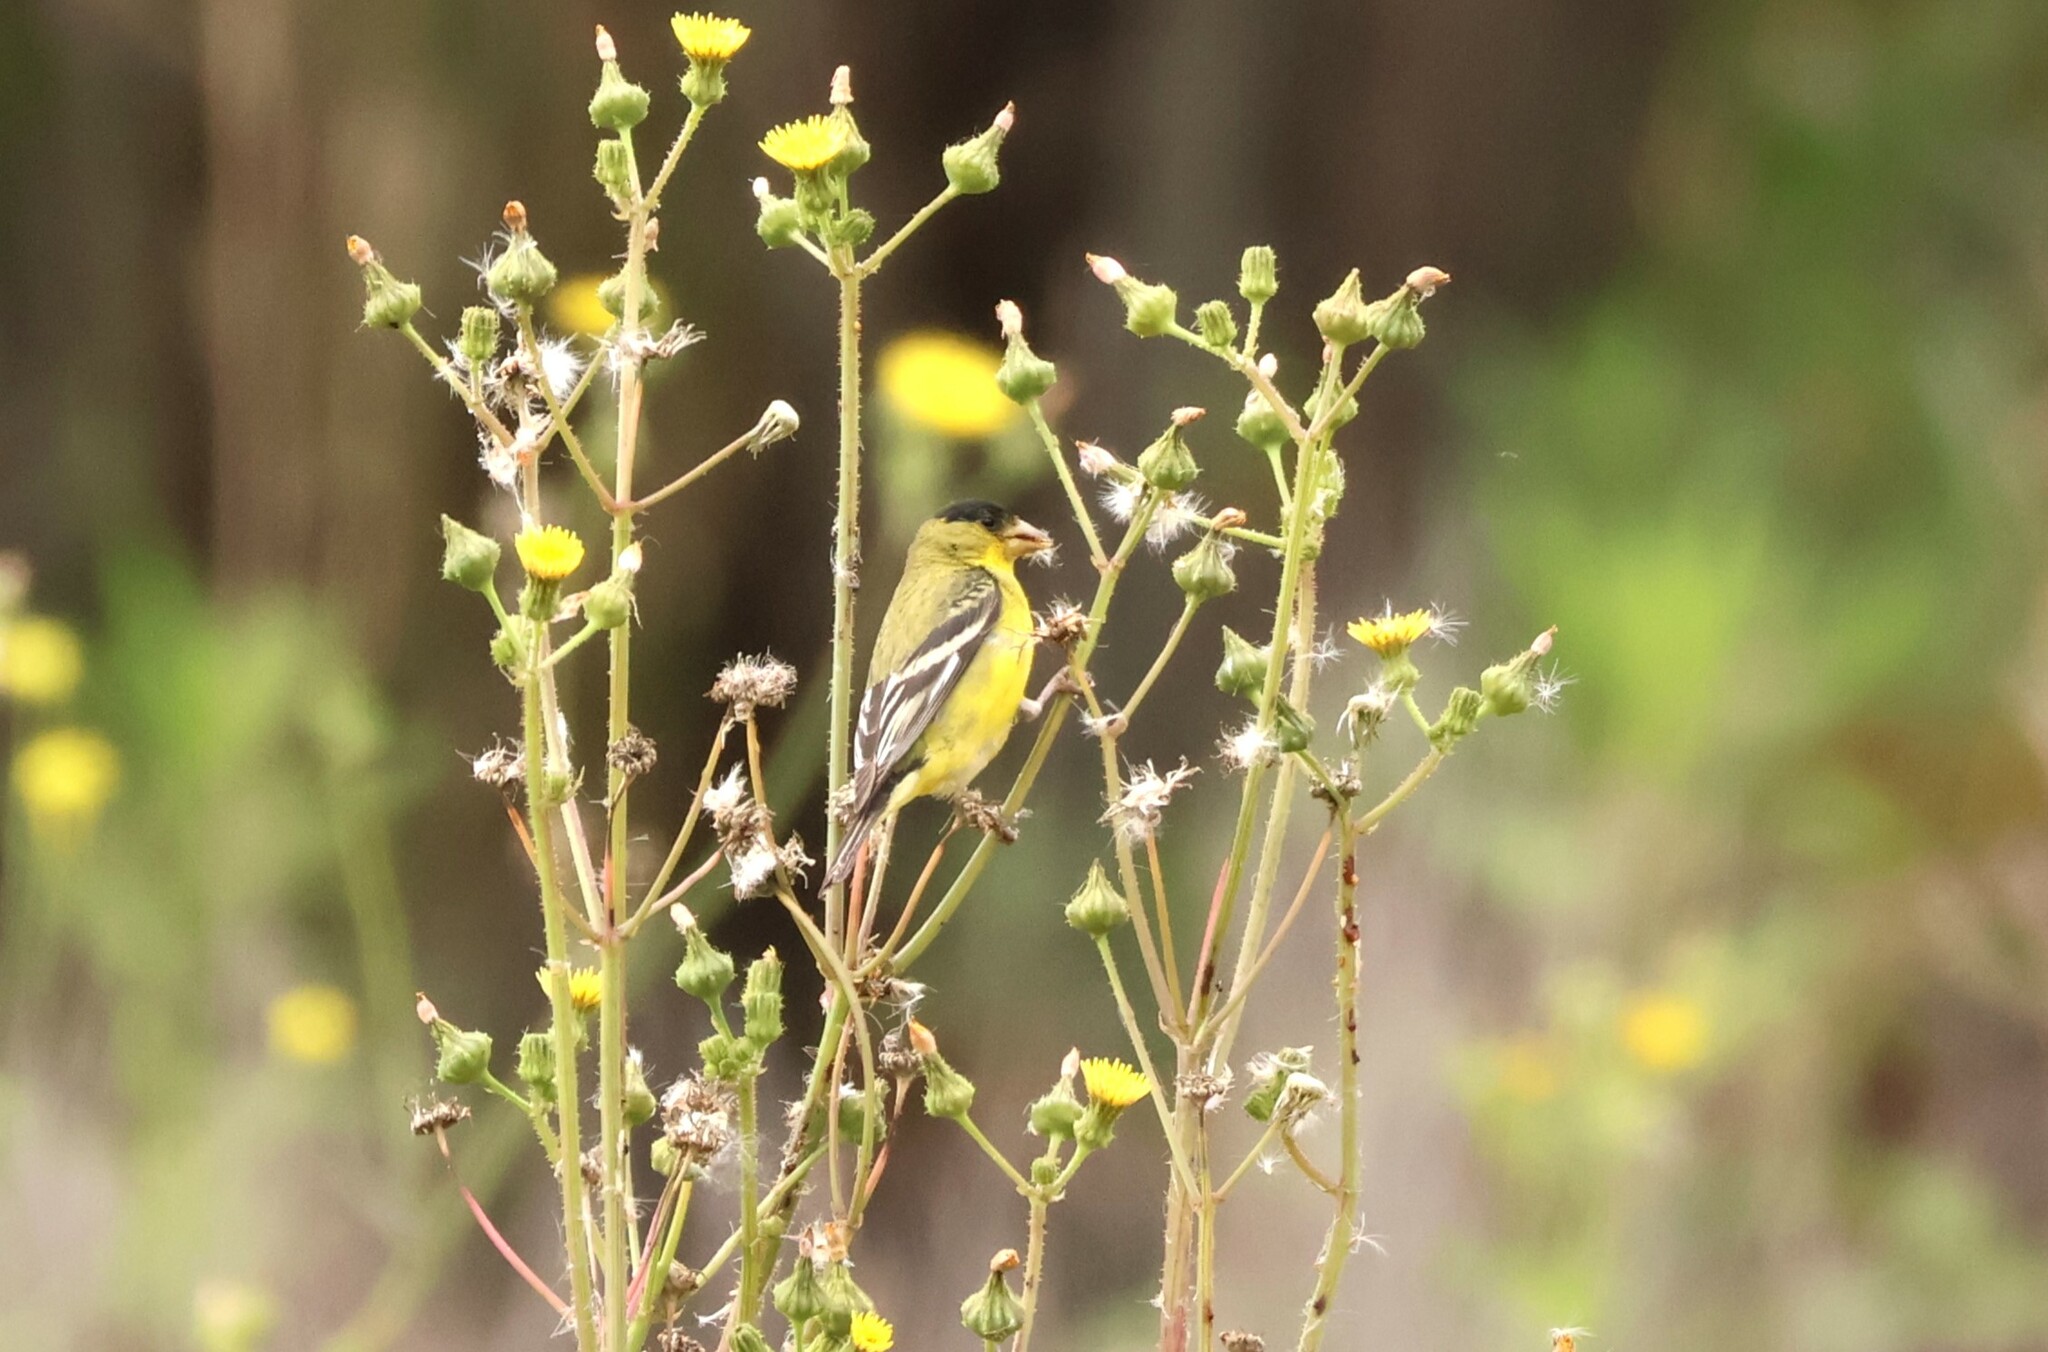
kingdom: Animalia
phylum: Chordata
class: Aves
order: Passeriformes
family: Fringillidae
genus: Spinus
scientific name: Spinus psaltria
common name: Lesser goldfinch
